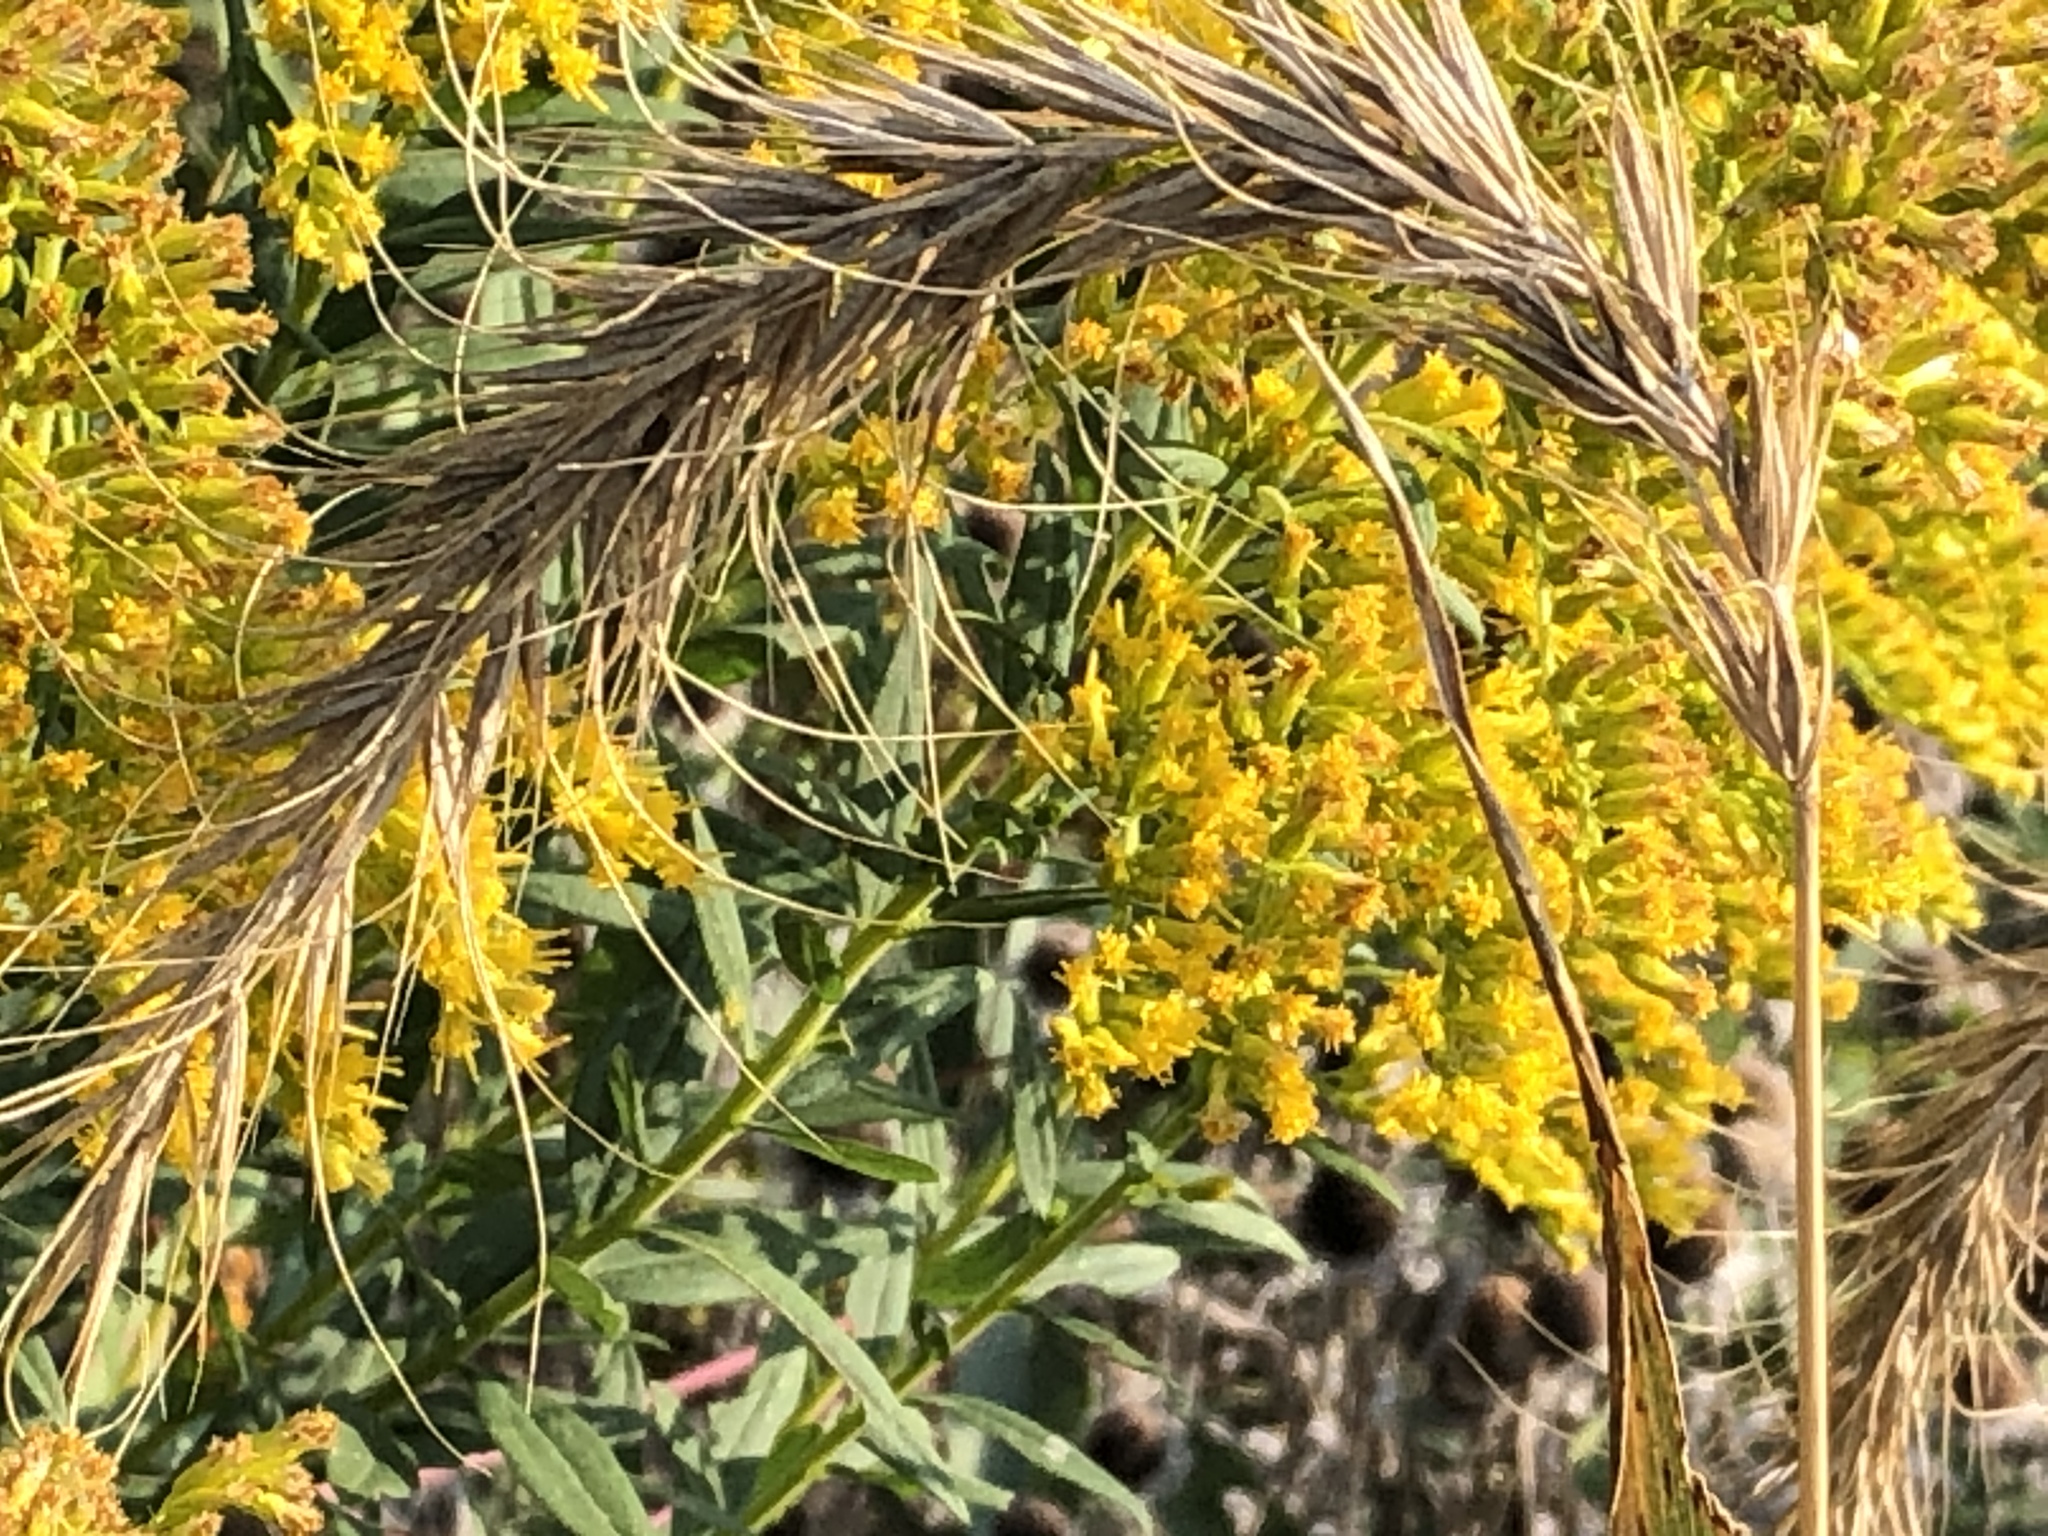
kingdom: Plantae
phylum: Tracheophyta
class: Liliopsida
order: Poales
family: Poaceae
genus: Elymus
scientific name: Elymus canadensis
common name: Canada wild rye
